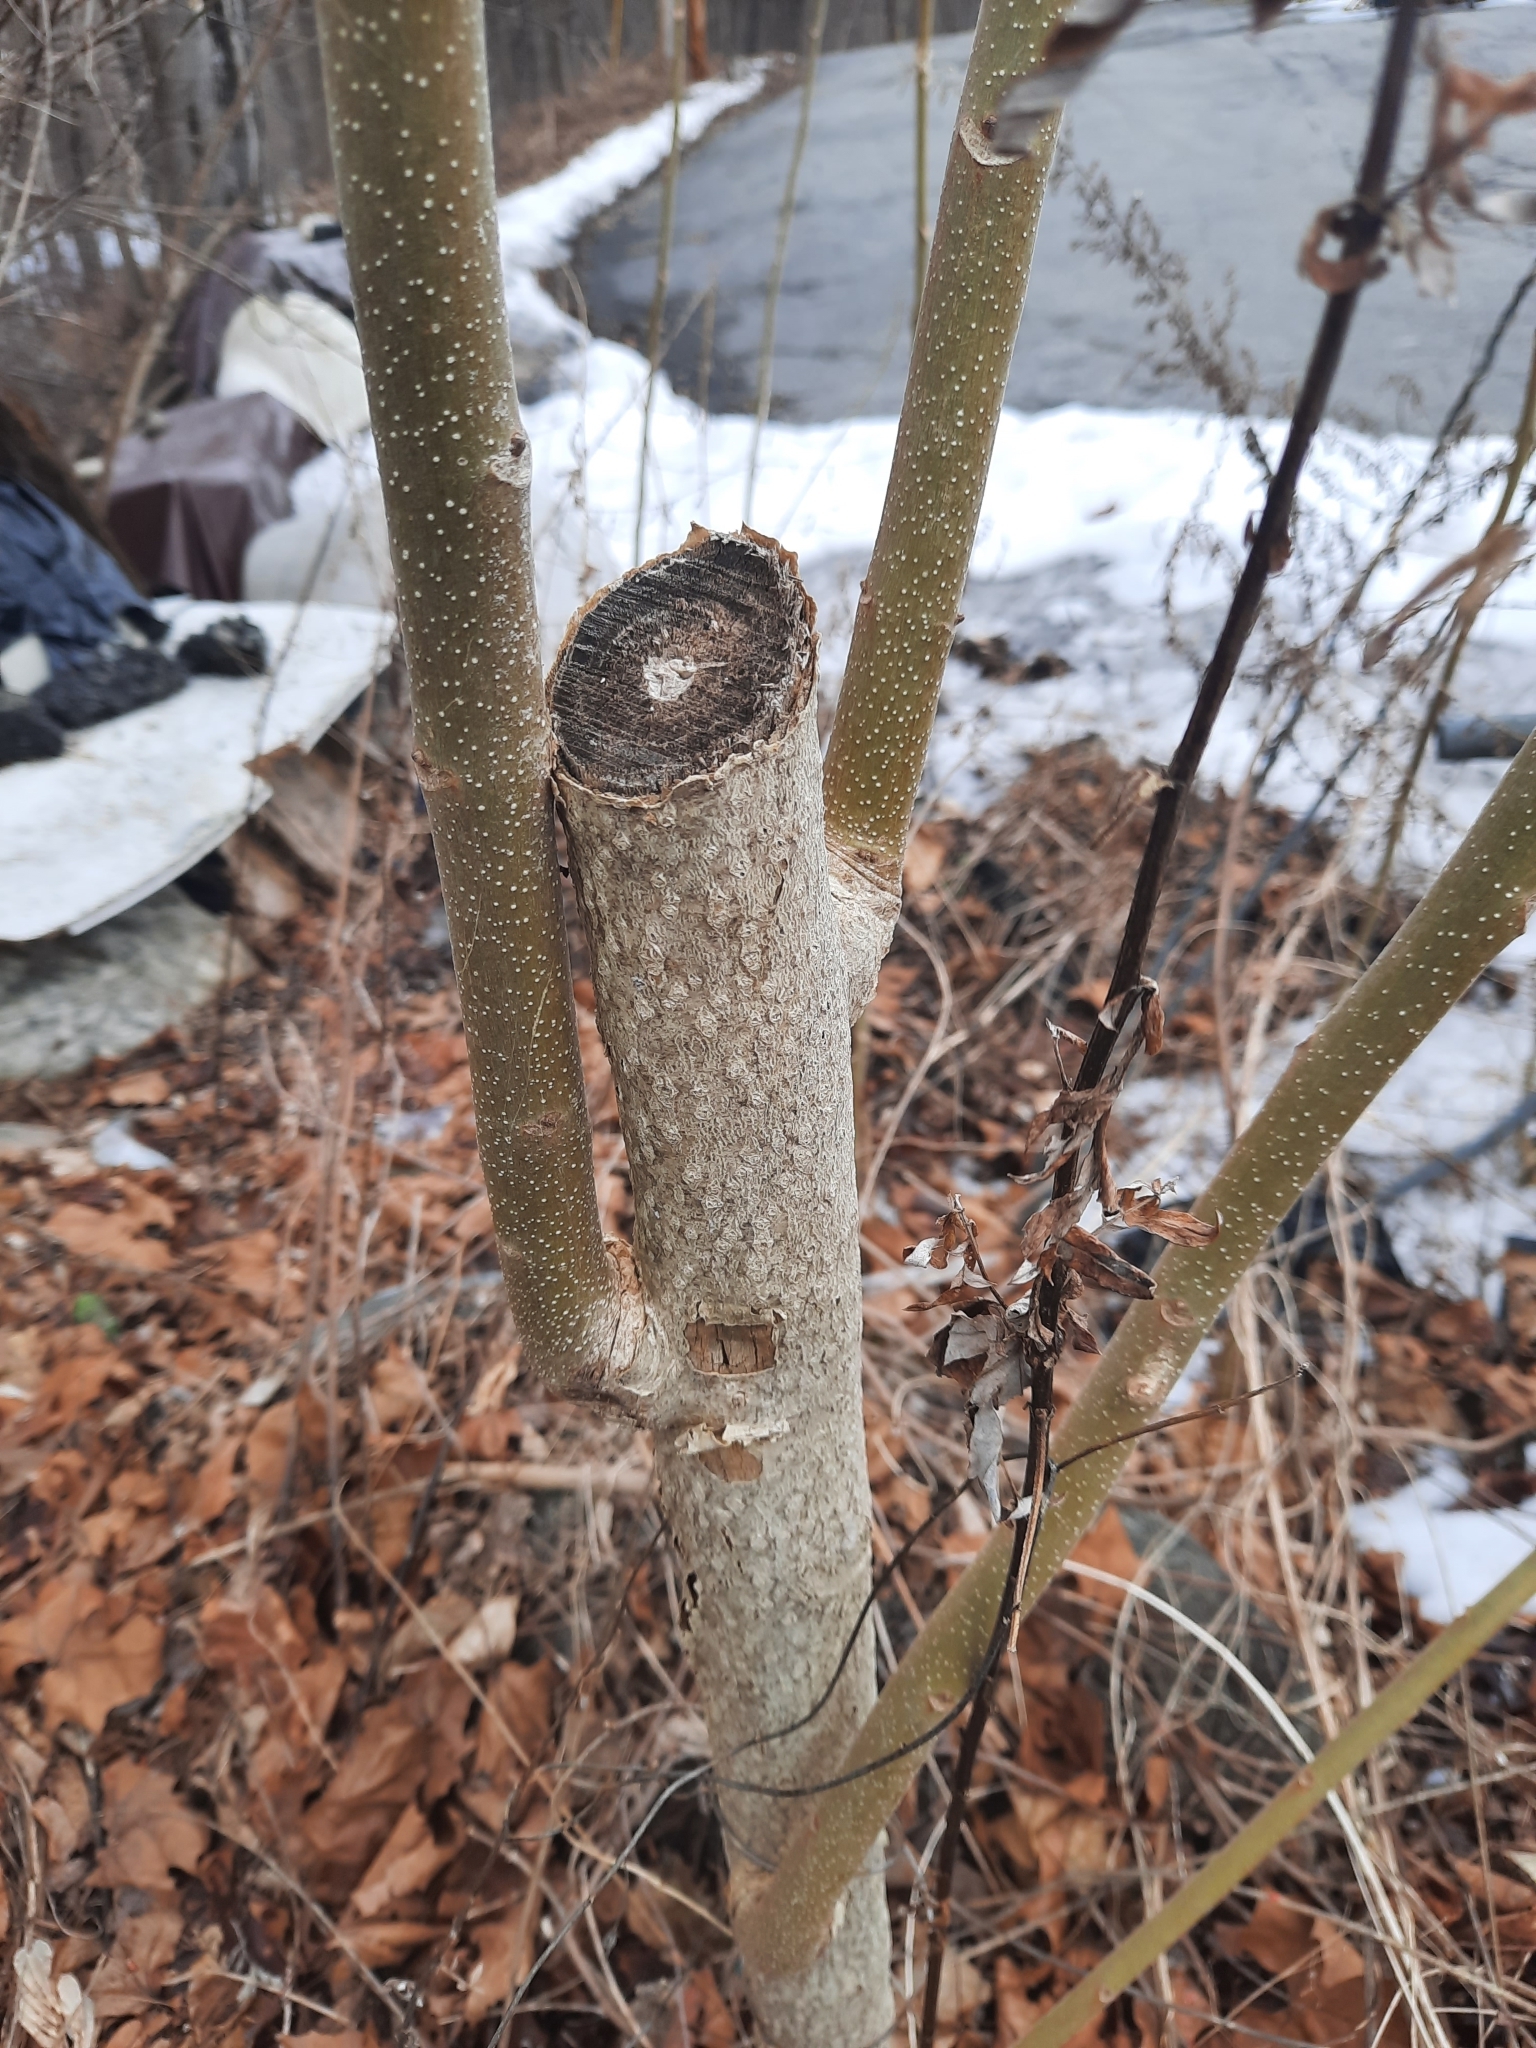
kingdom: Plantae
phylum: Tracheophyta
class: Magnoliopsida
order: Sapindales
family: Simaroubaceae
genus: Ailanthus
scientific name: Ailanthus altissima
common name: Tree-of-heaven
